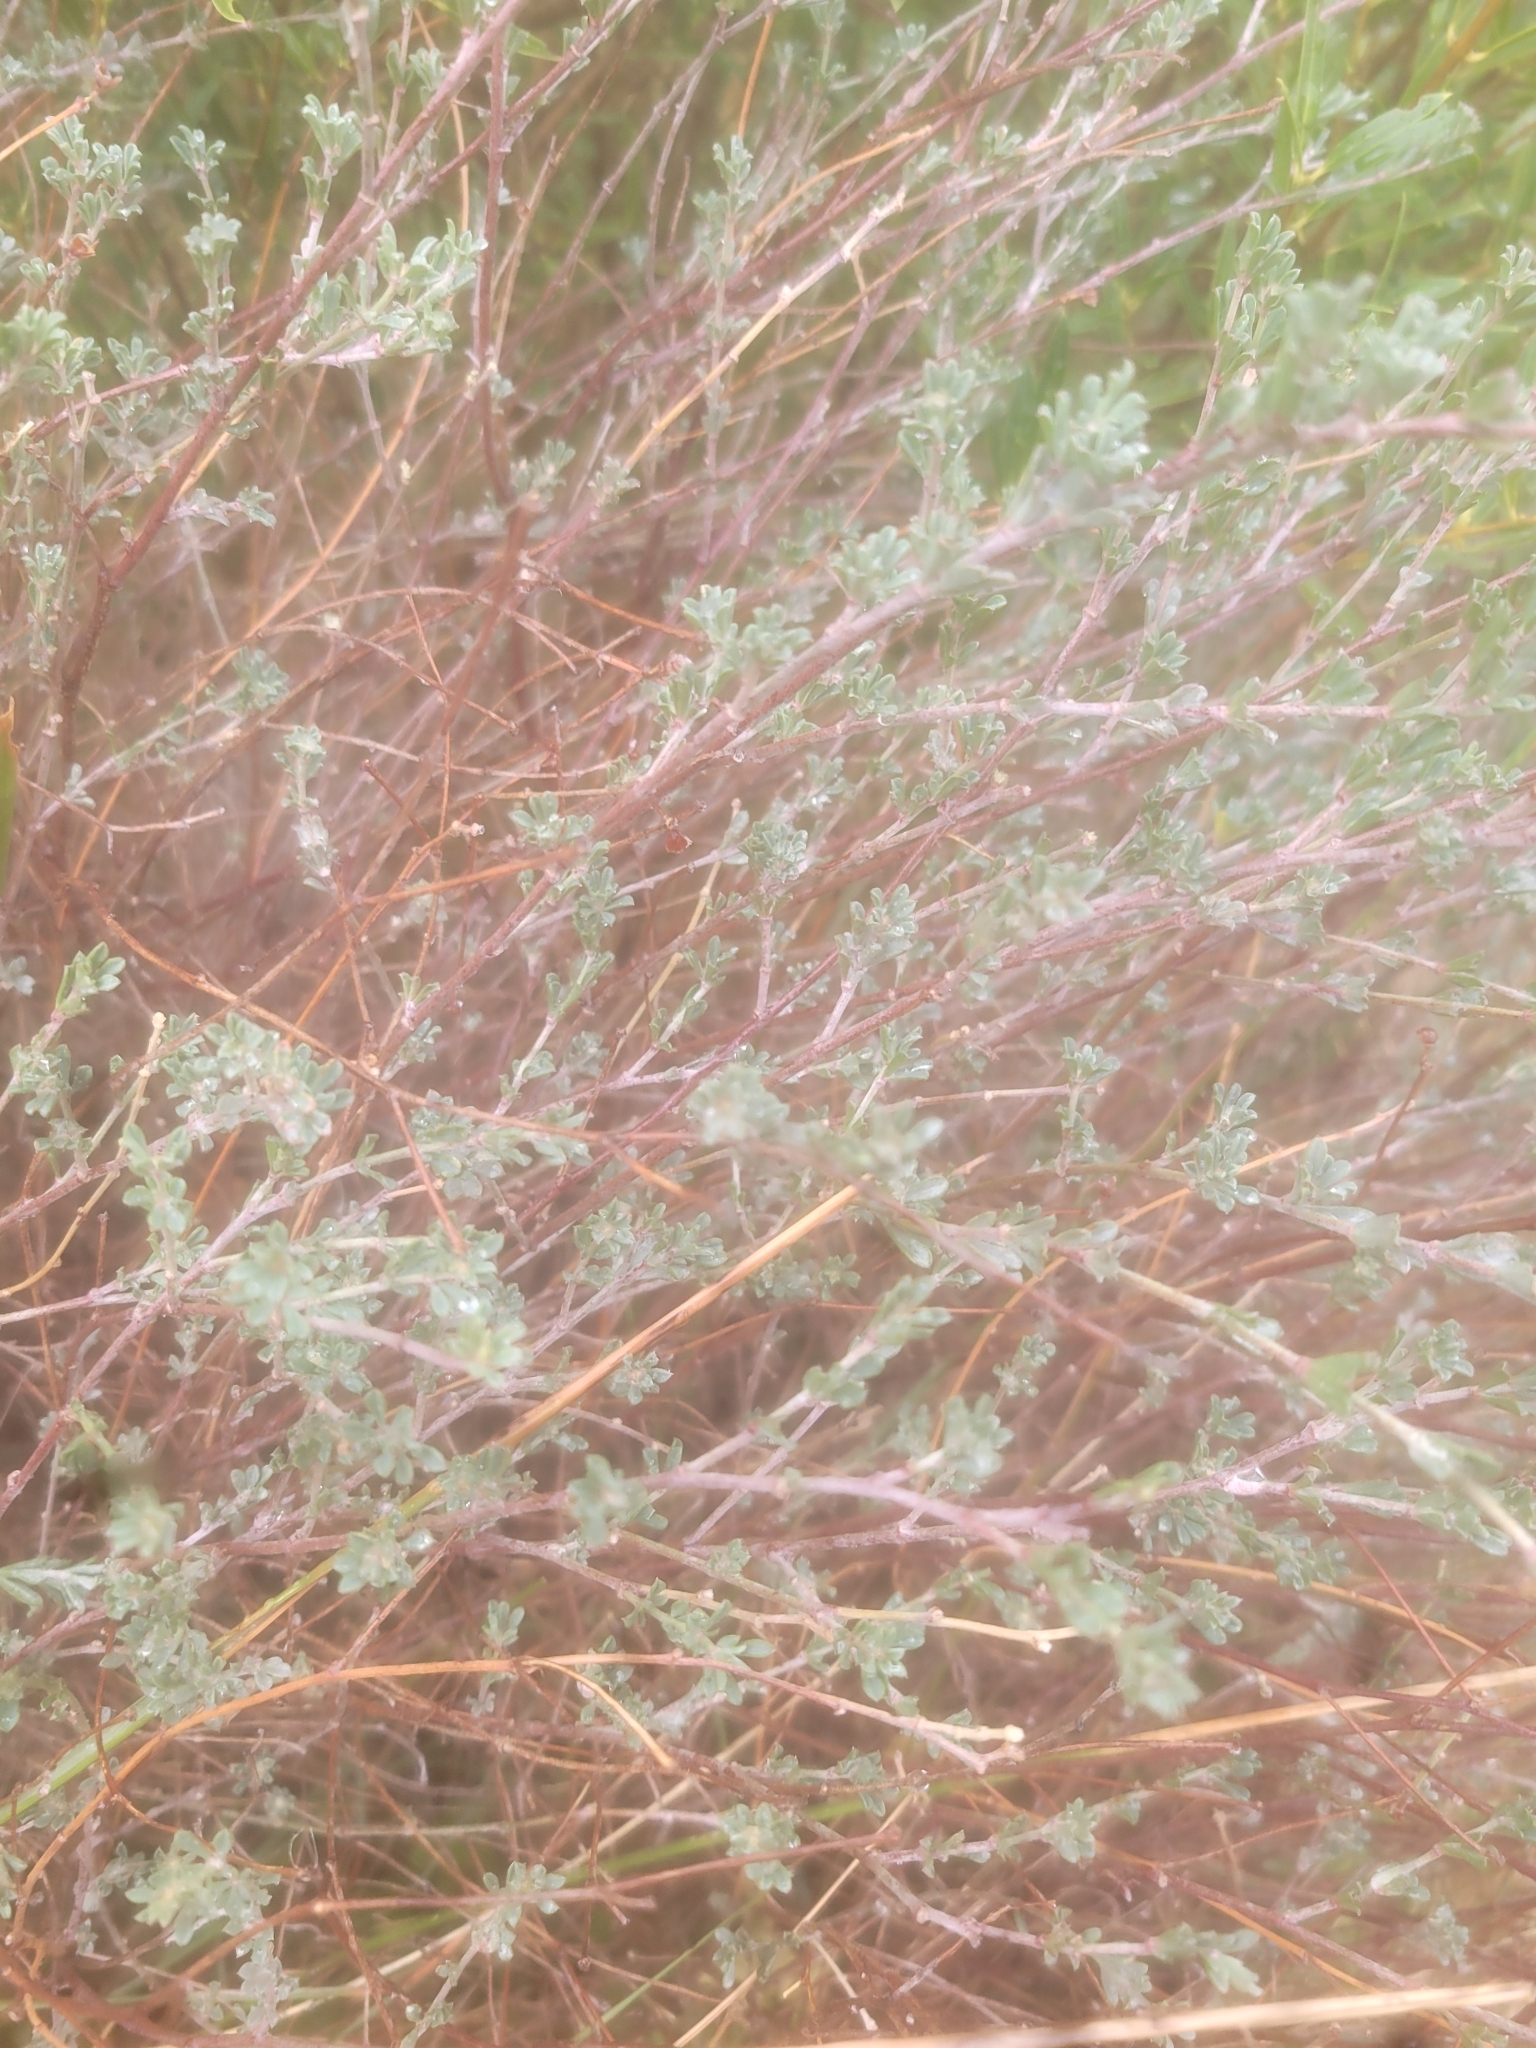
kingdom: Plantae
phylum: Tracheophyta
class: Magnoliopsida
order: Fabales
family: Fabaceae
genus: Lotus
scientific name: Lotus dorycnium
